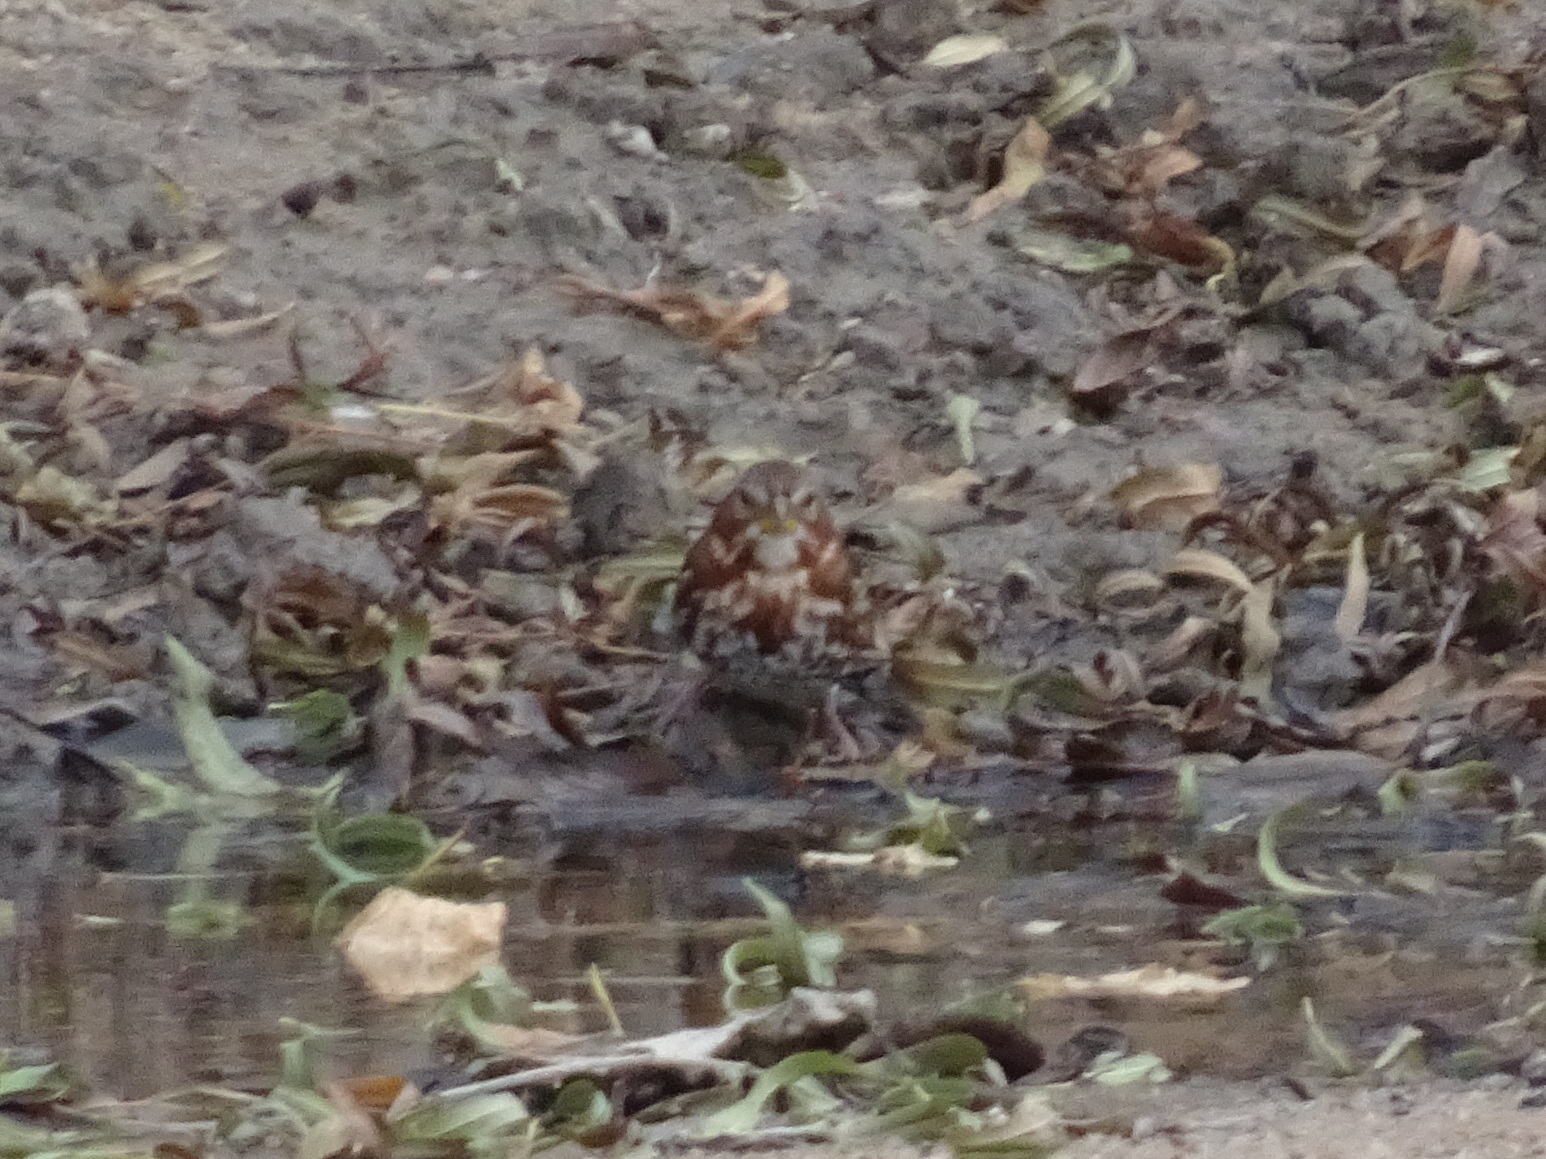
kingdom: Animalia
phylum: Chordata
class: Aves
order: Passeriformes
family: Passerellidae
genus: Passerella
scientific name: Passerella iliaca
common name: Fox sparrow
